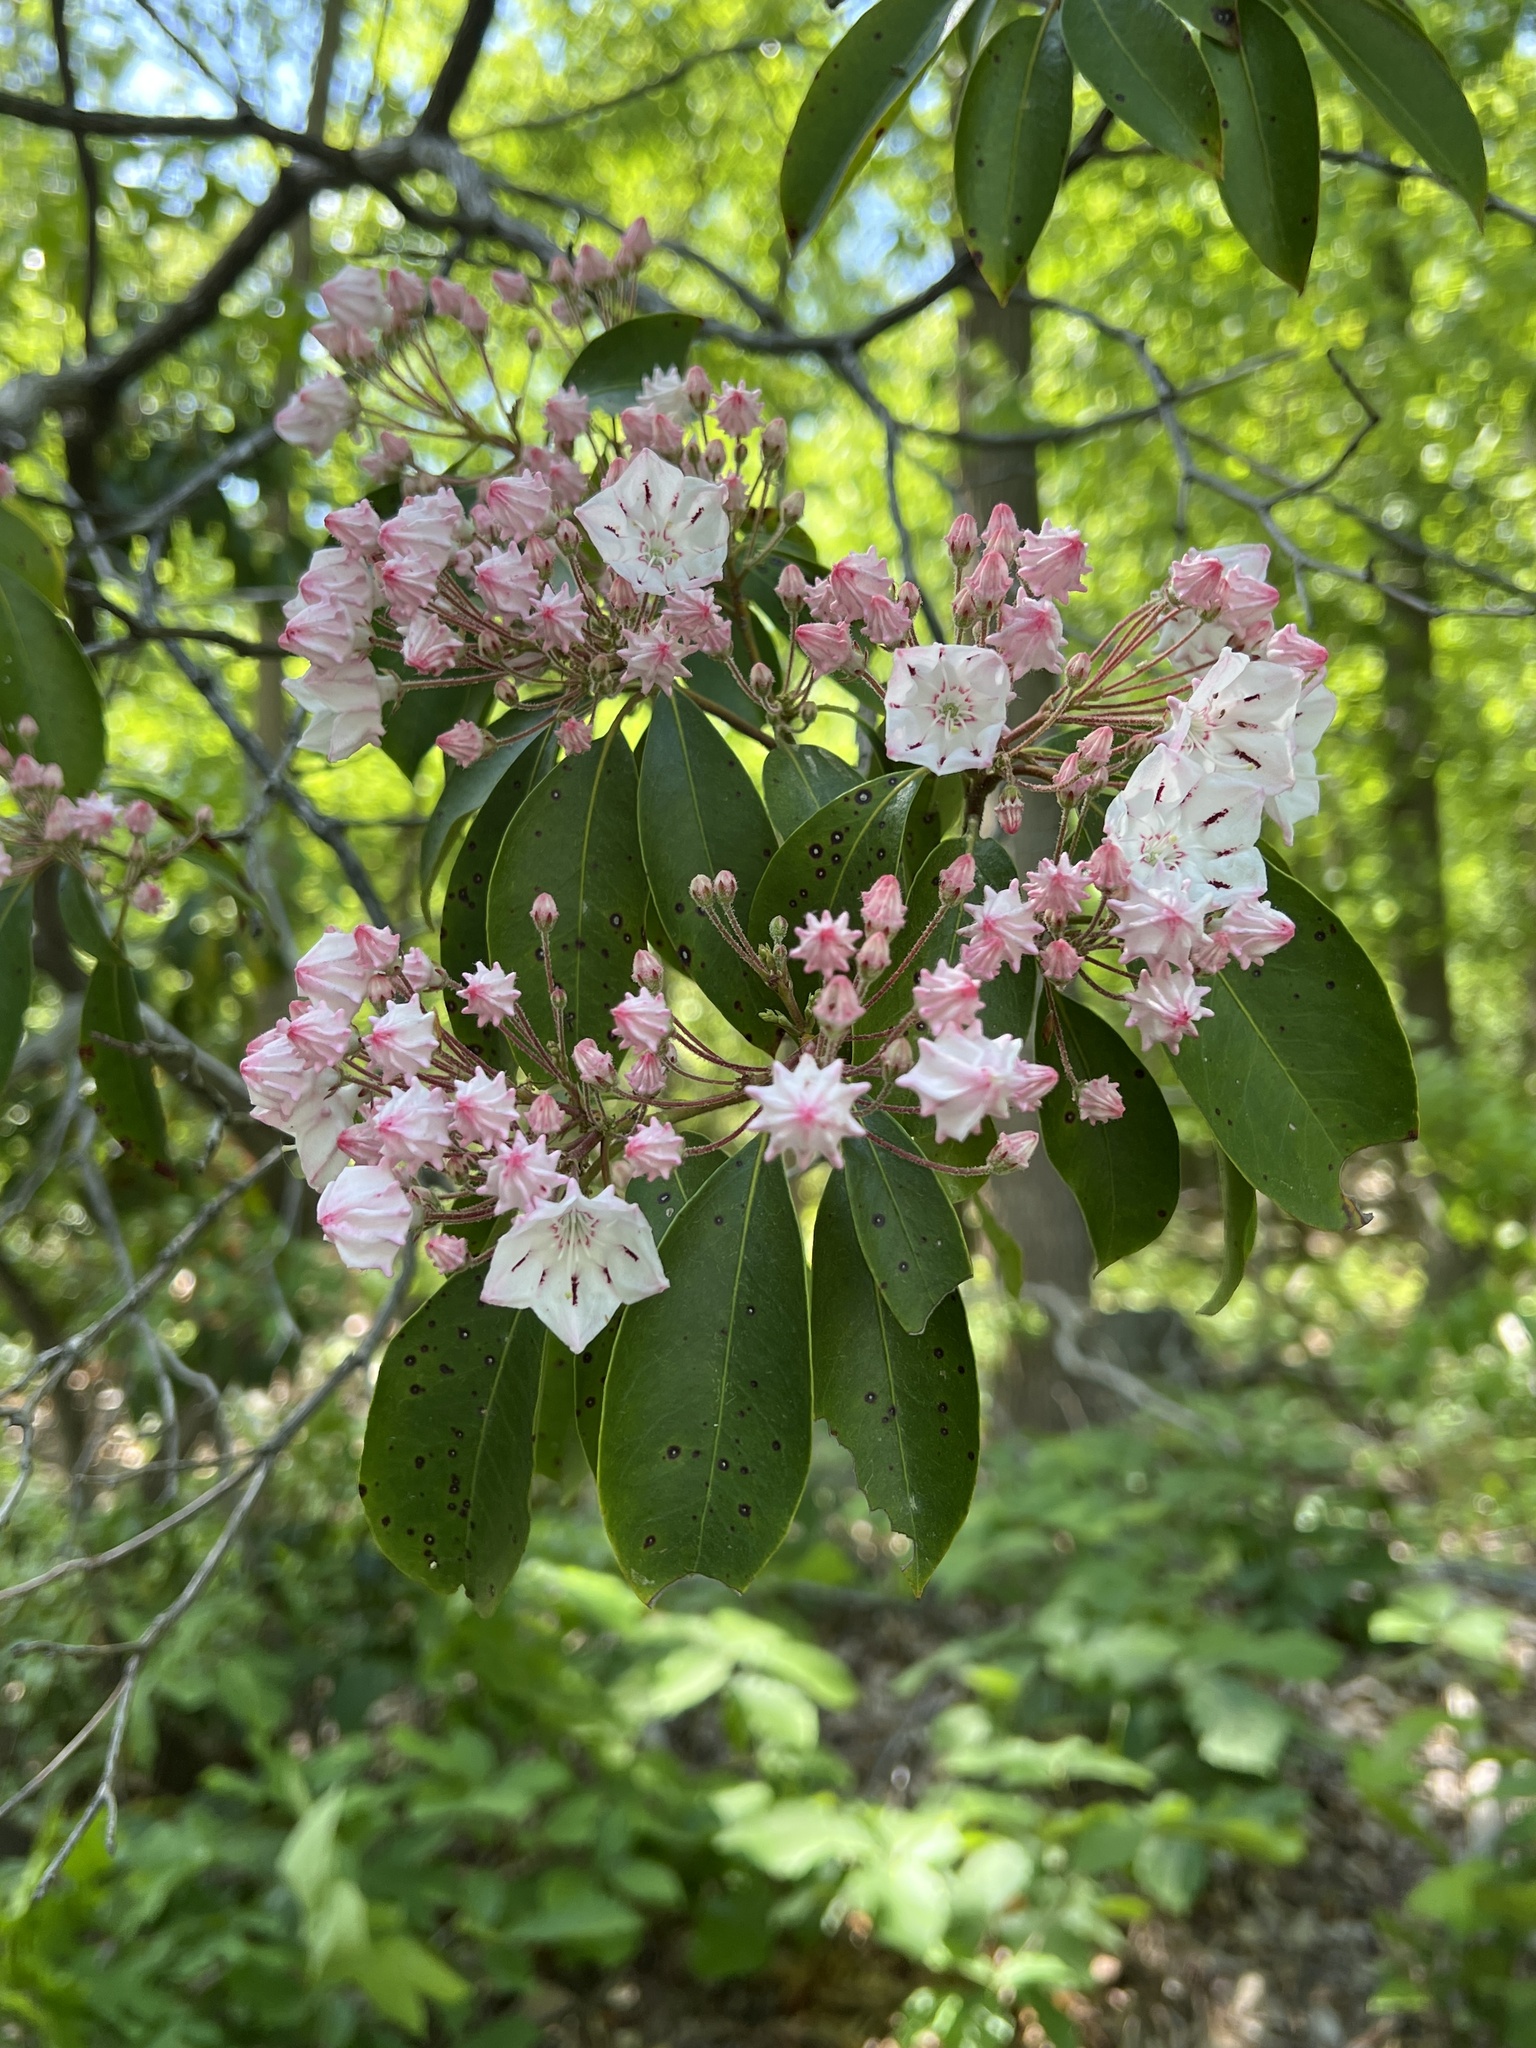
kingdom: Plantae
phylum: Tracheophyta
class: Magnoliopsida
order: Ericales
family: Ericaceae
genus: Kalmia
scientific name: Kalmia latifolia
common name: Mountain-laurel
